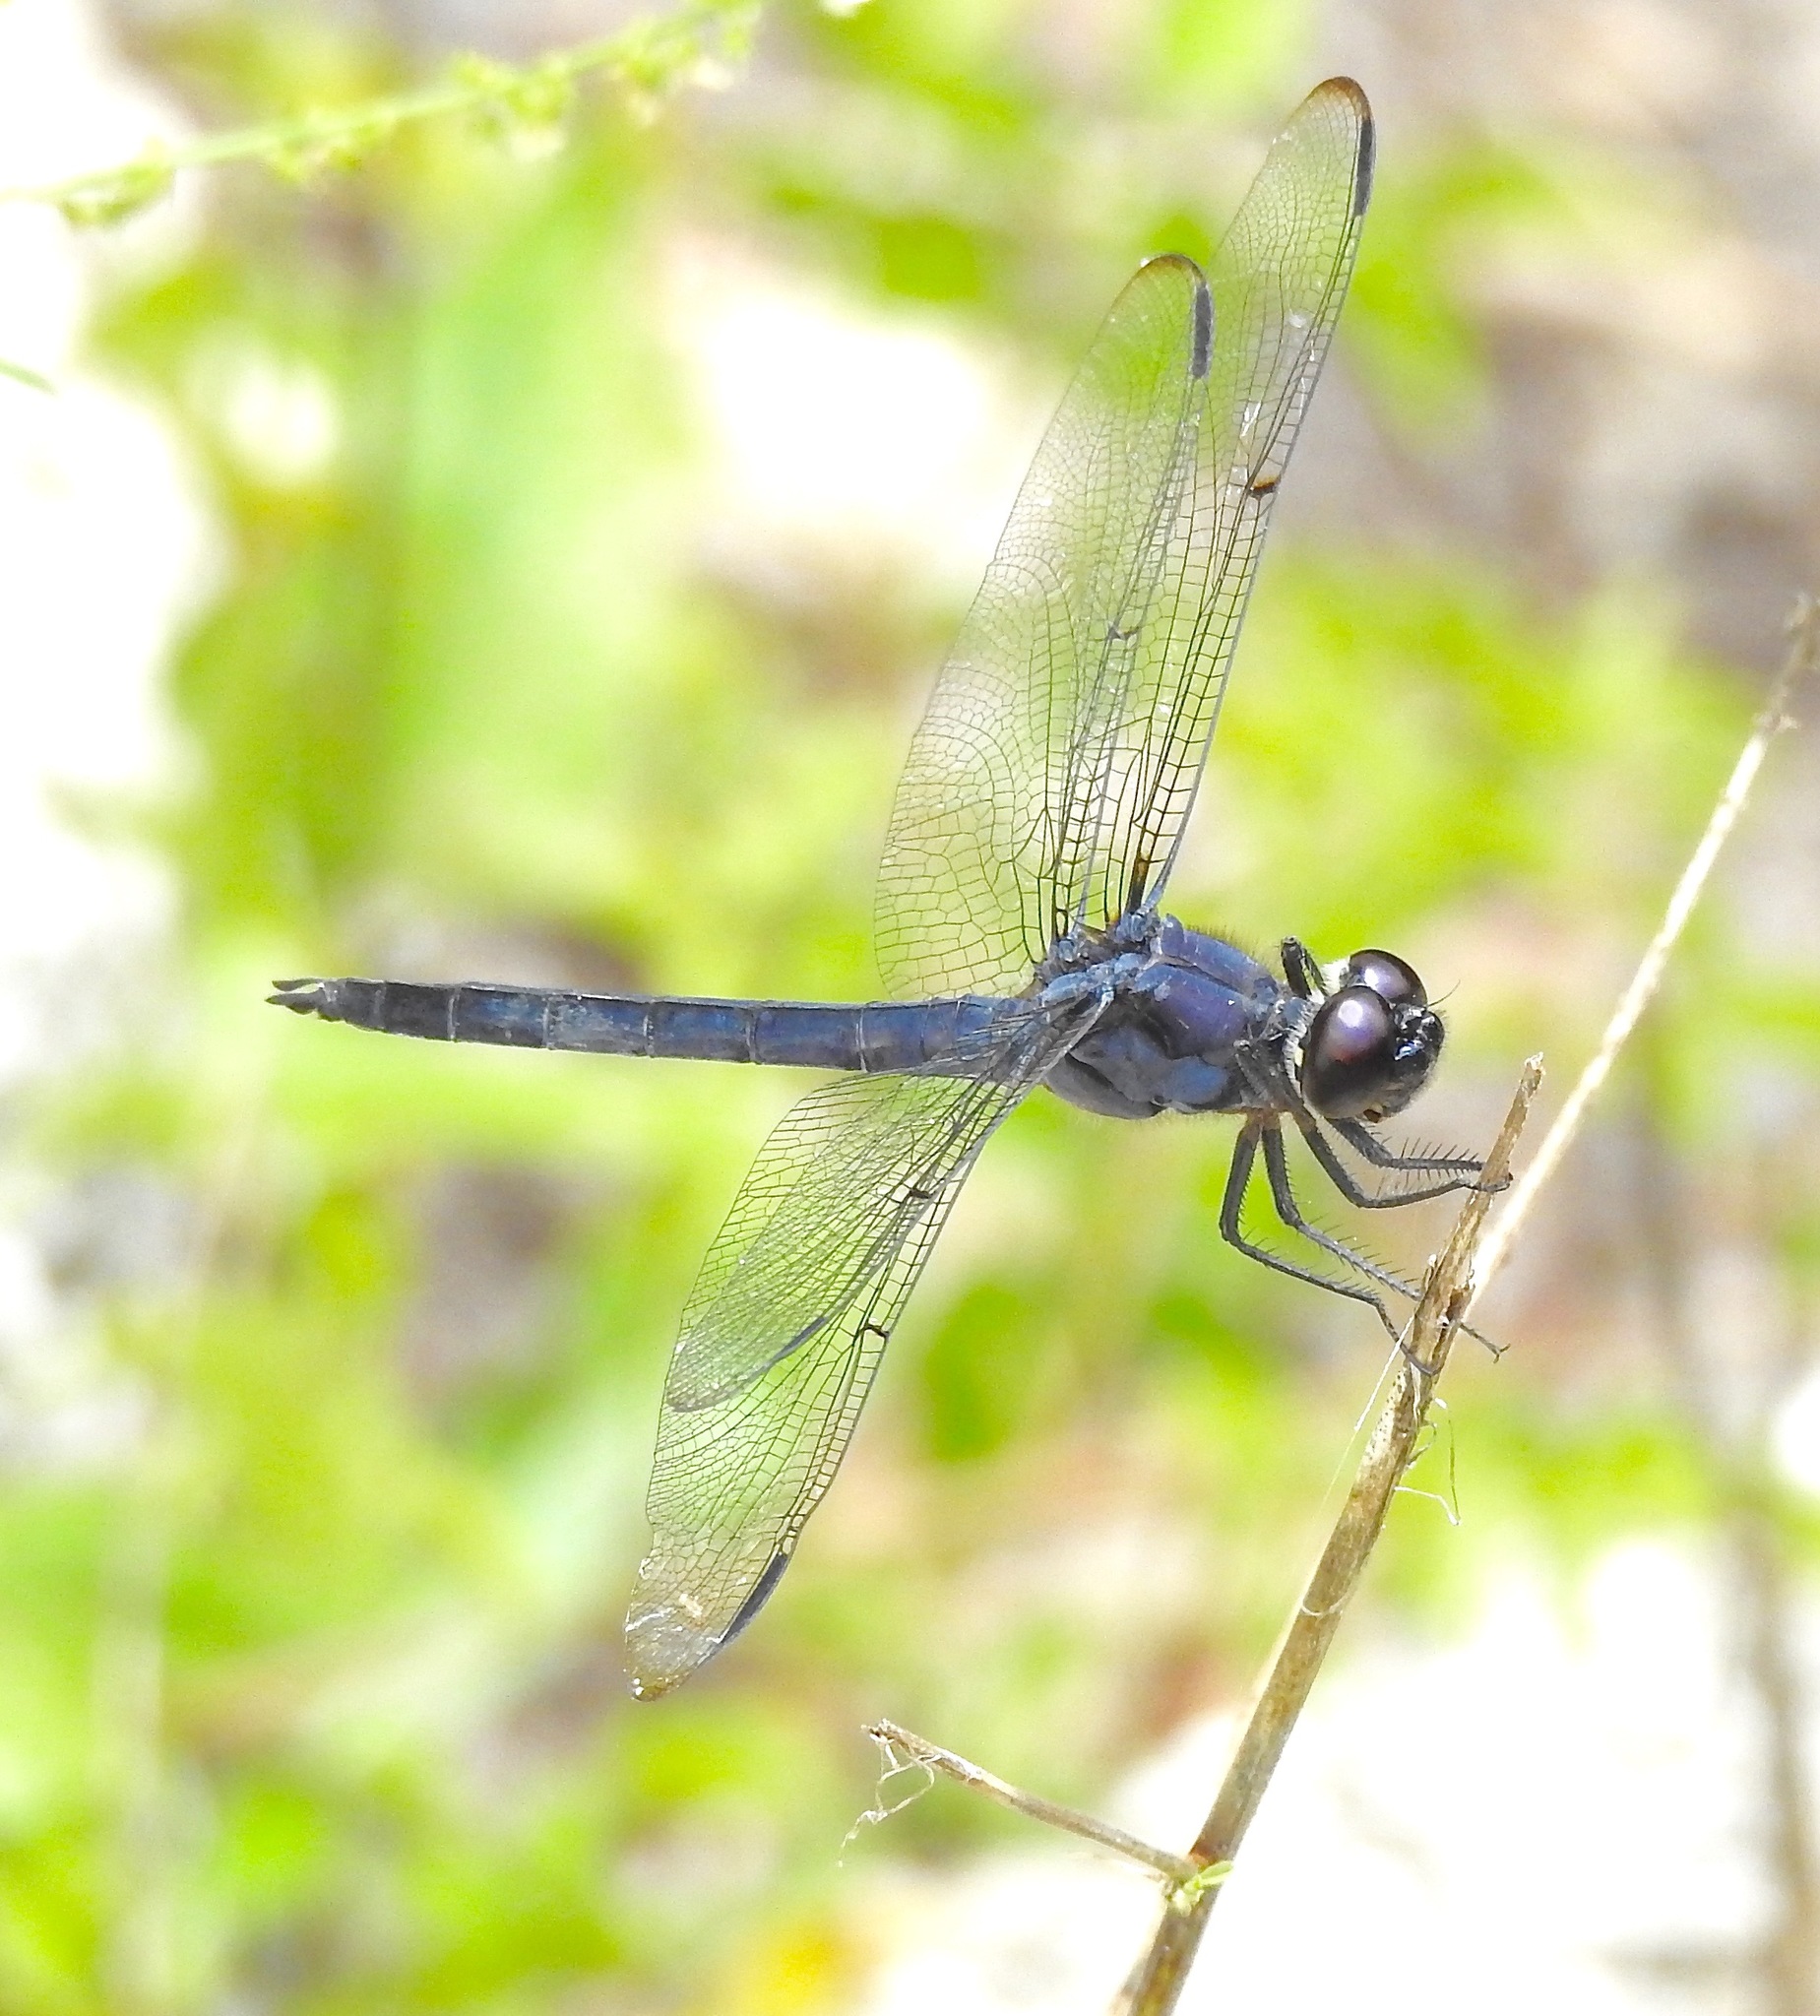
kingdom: Animalia
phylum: Arthropoda
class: Insecta
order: Odonata
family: Libellulidae
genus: Libellula
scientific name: Libellula incesta
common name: Slaty skimmer
